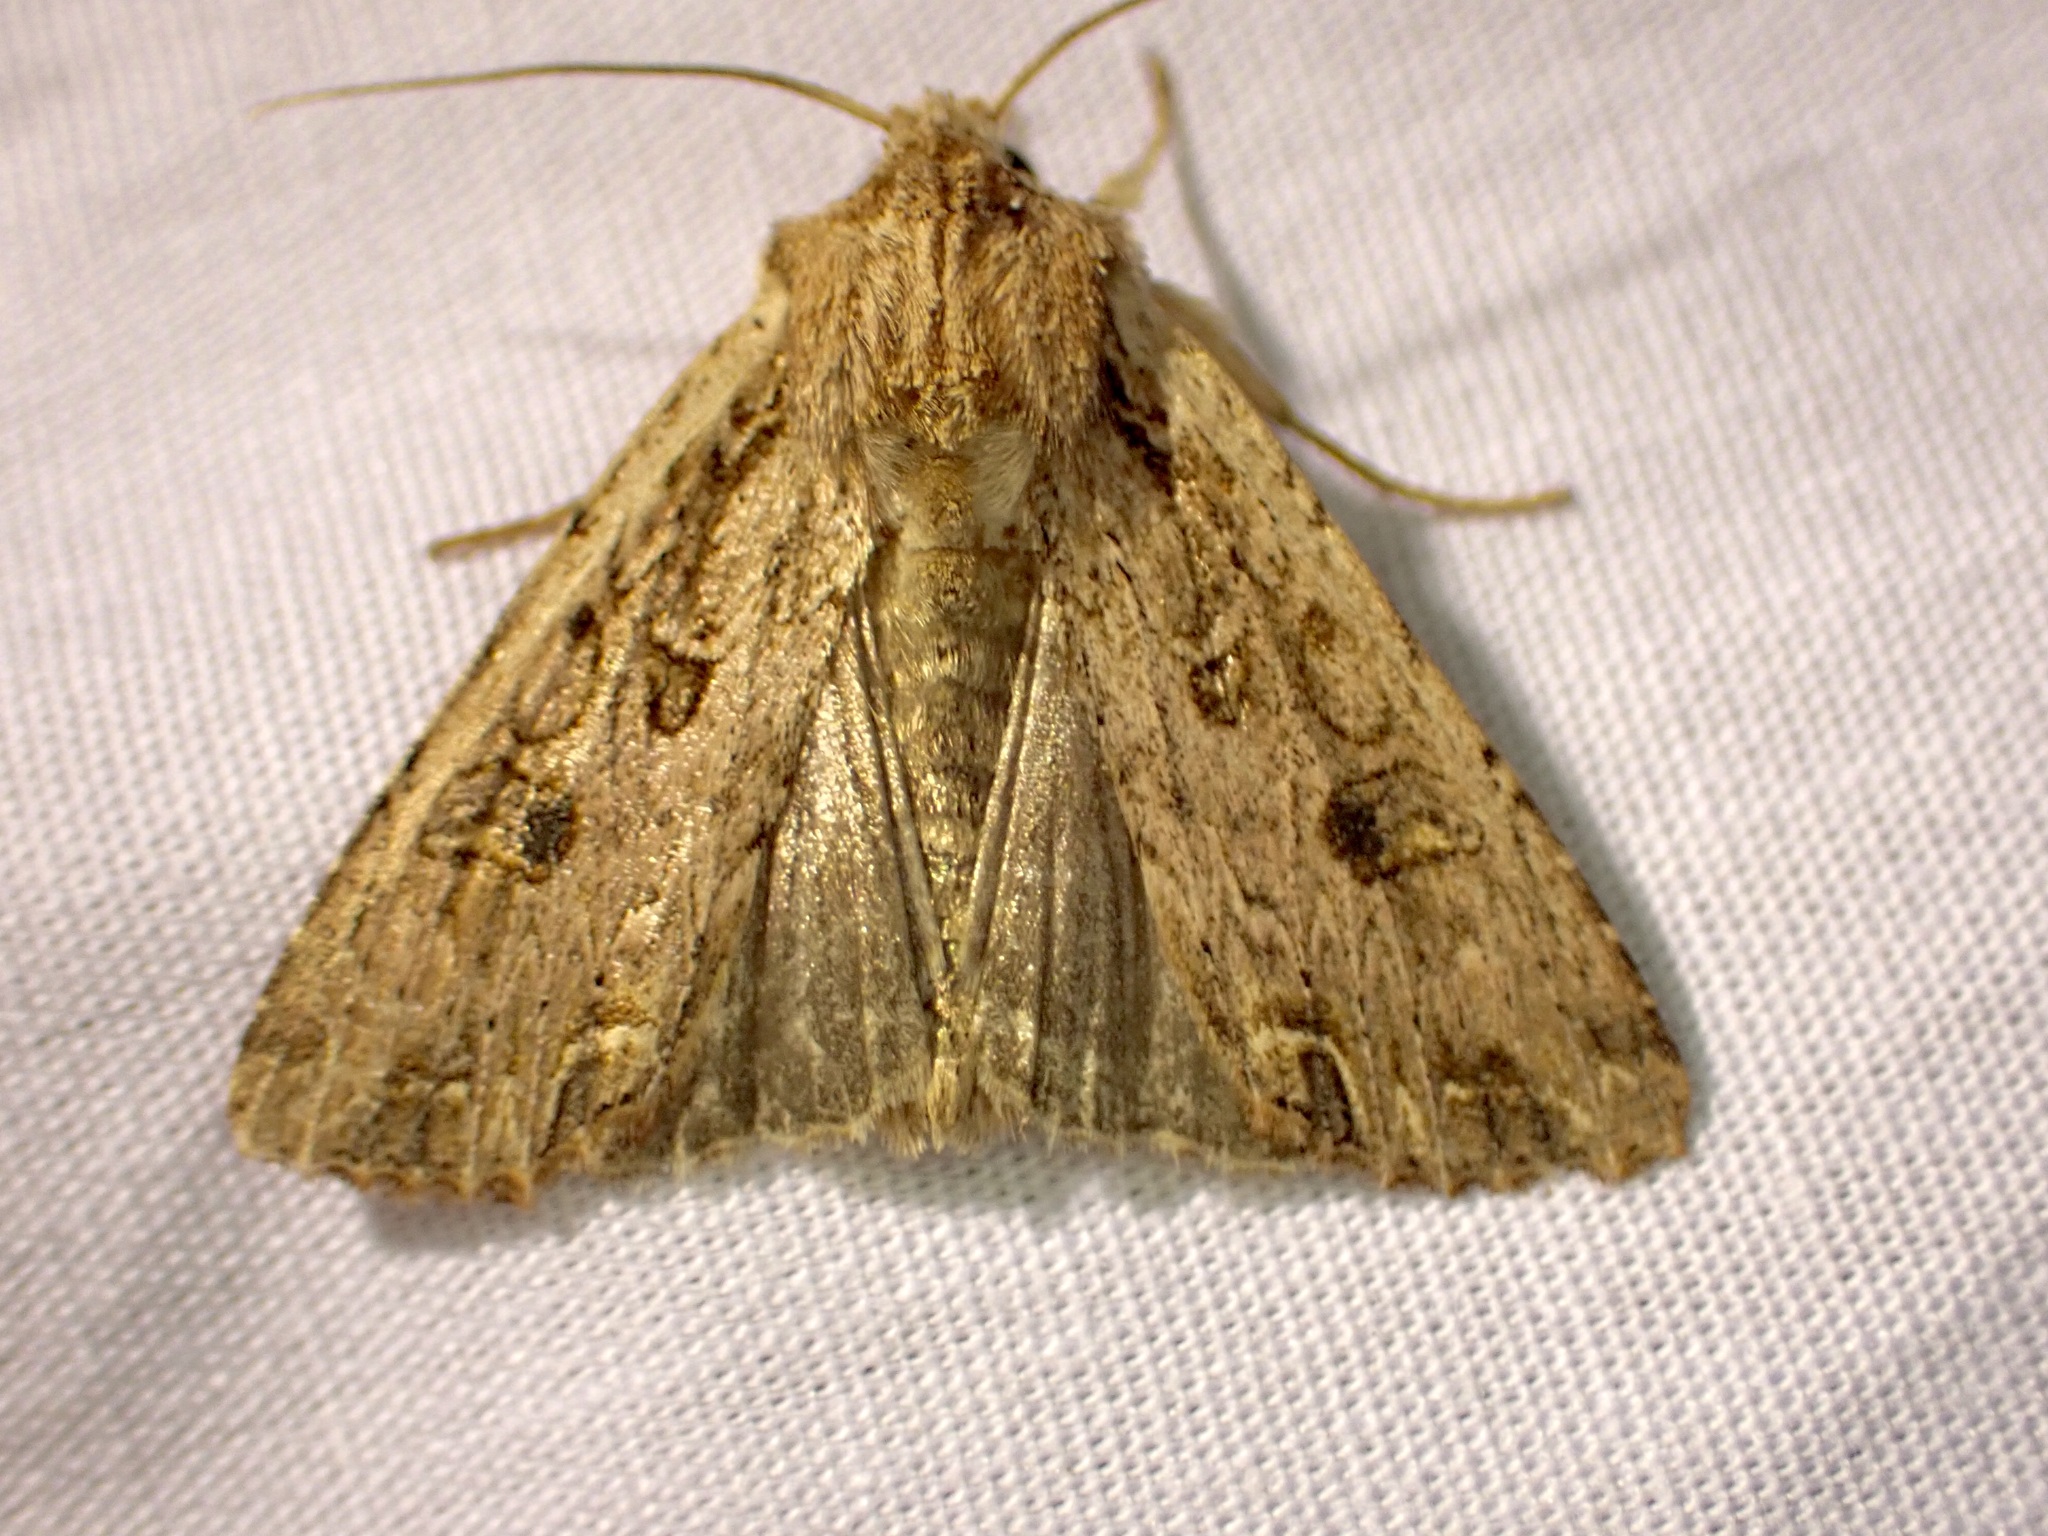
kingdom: Animalia
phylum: Arthropoda
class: Insecta
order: Lepidoptera
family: Noctuidae
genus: Ichneutica
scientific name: Ichneutica lignana
